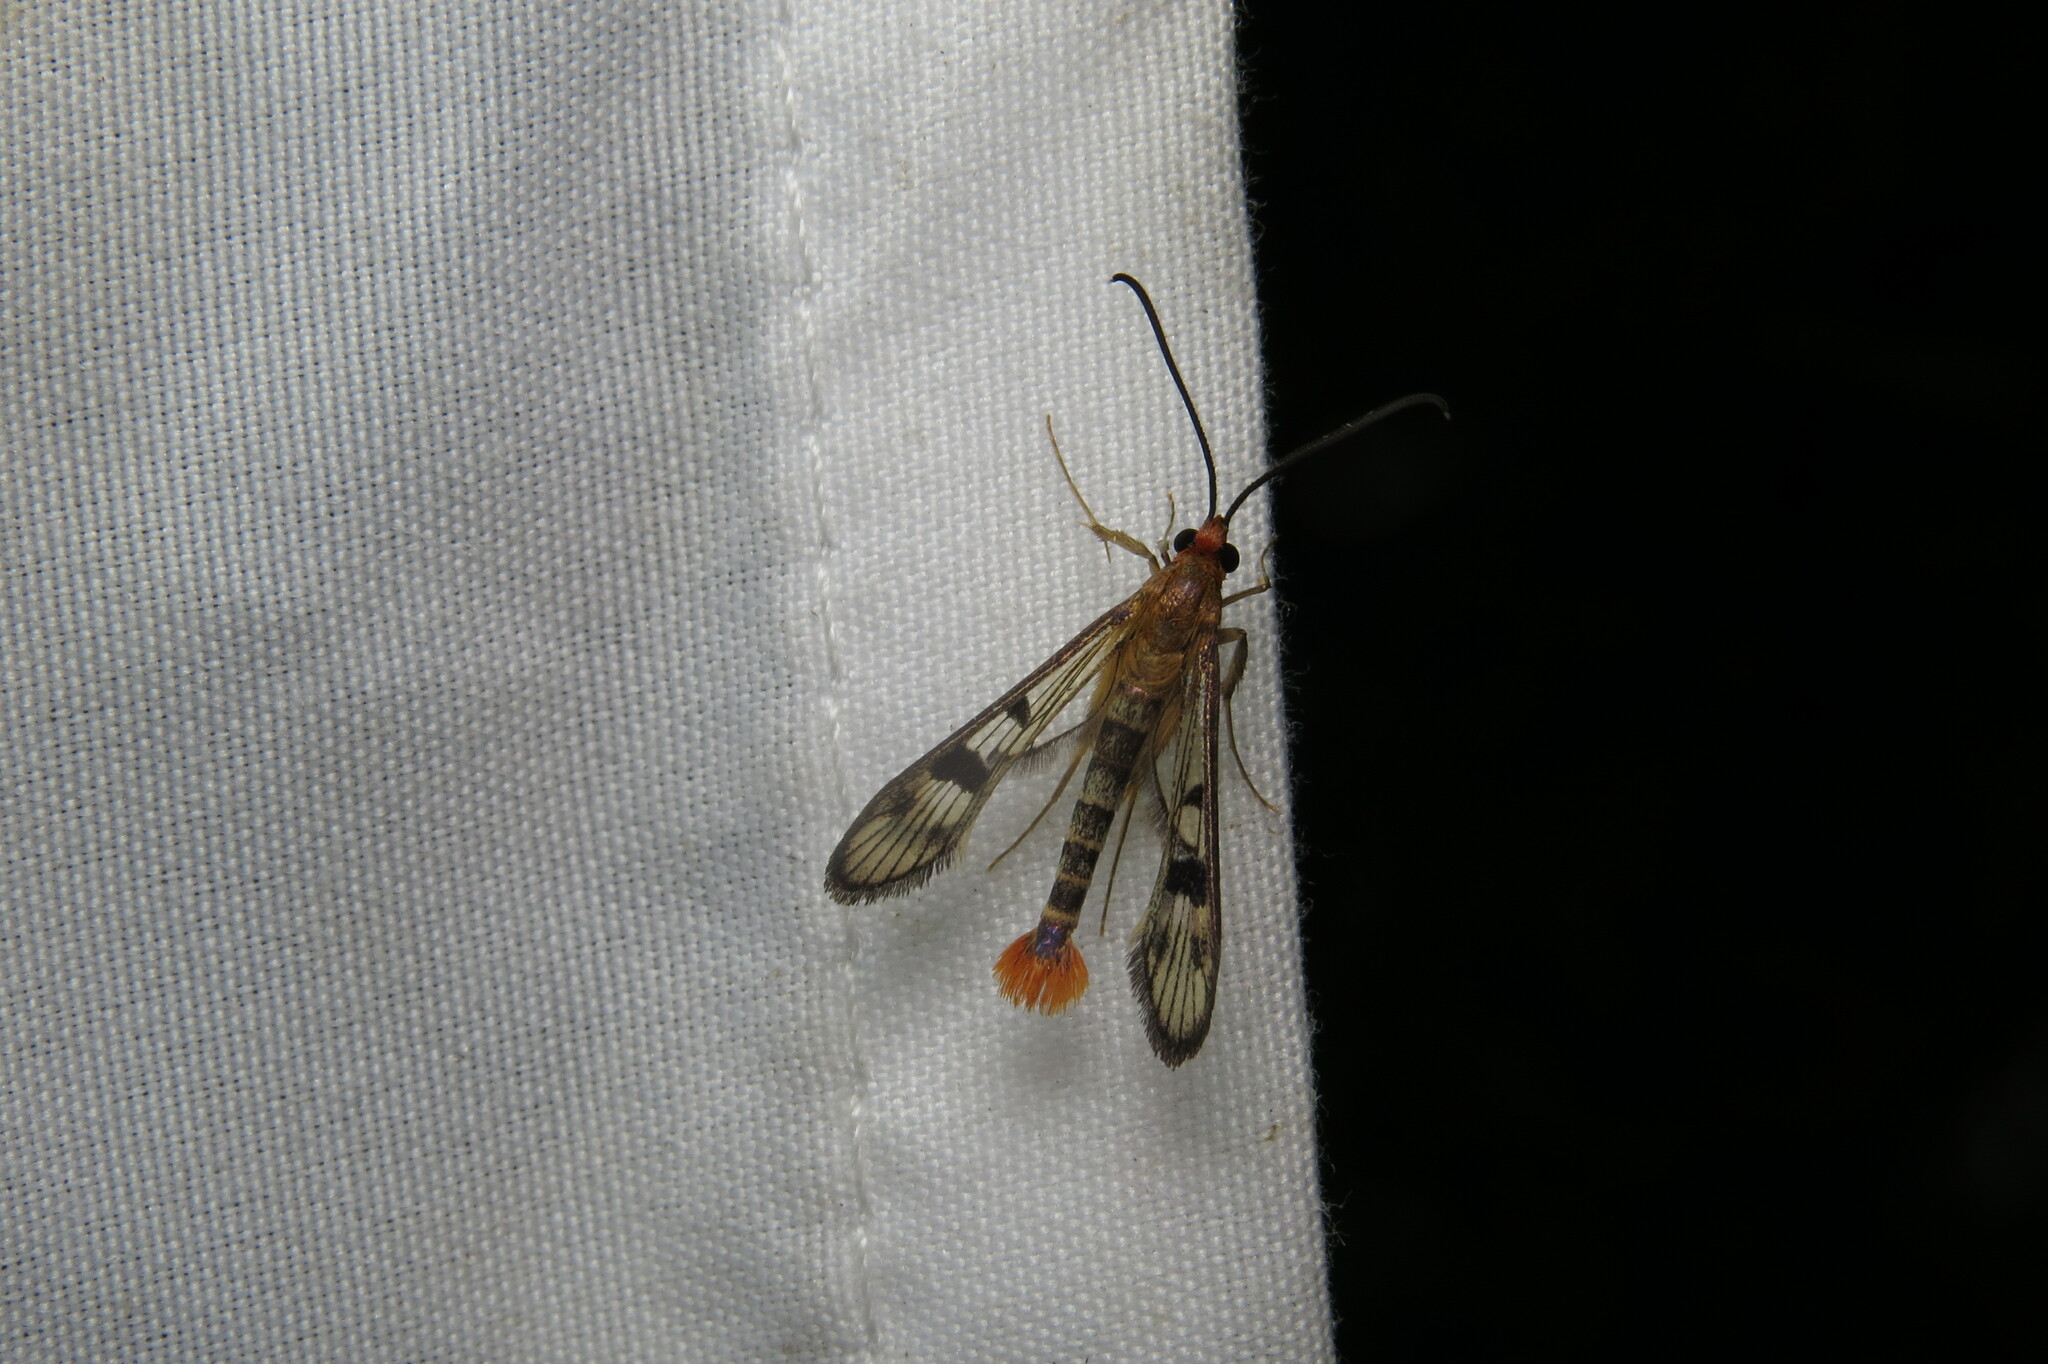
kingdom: Animalia
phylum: Arthropoda
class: Insecta
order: Lepidoptera
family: Sesiidae
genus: Synanthedon
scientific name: Synanthedon acerni
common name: Maple callus borer moth
